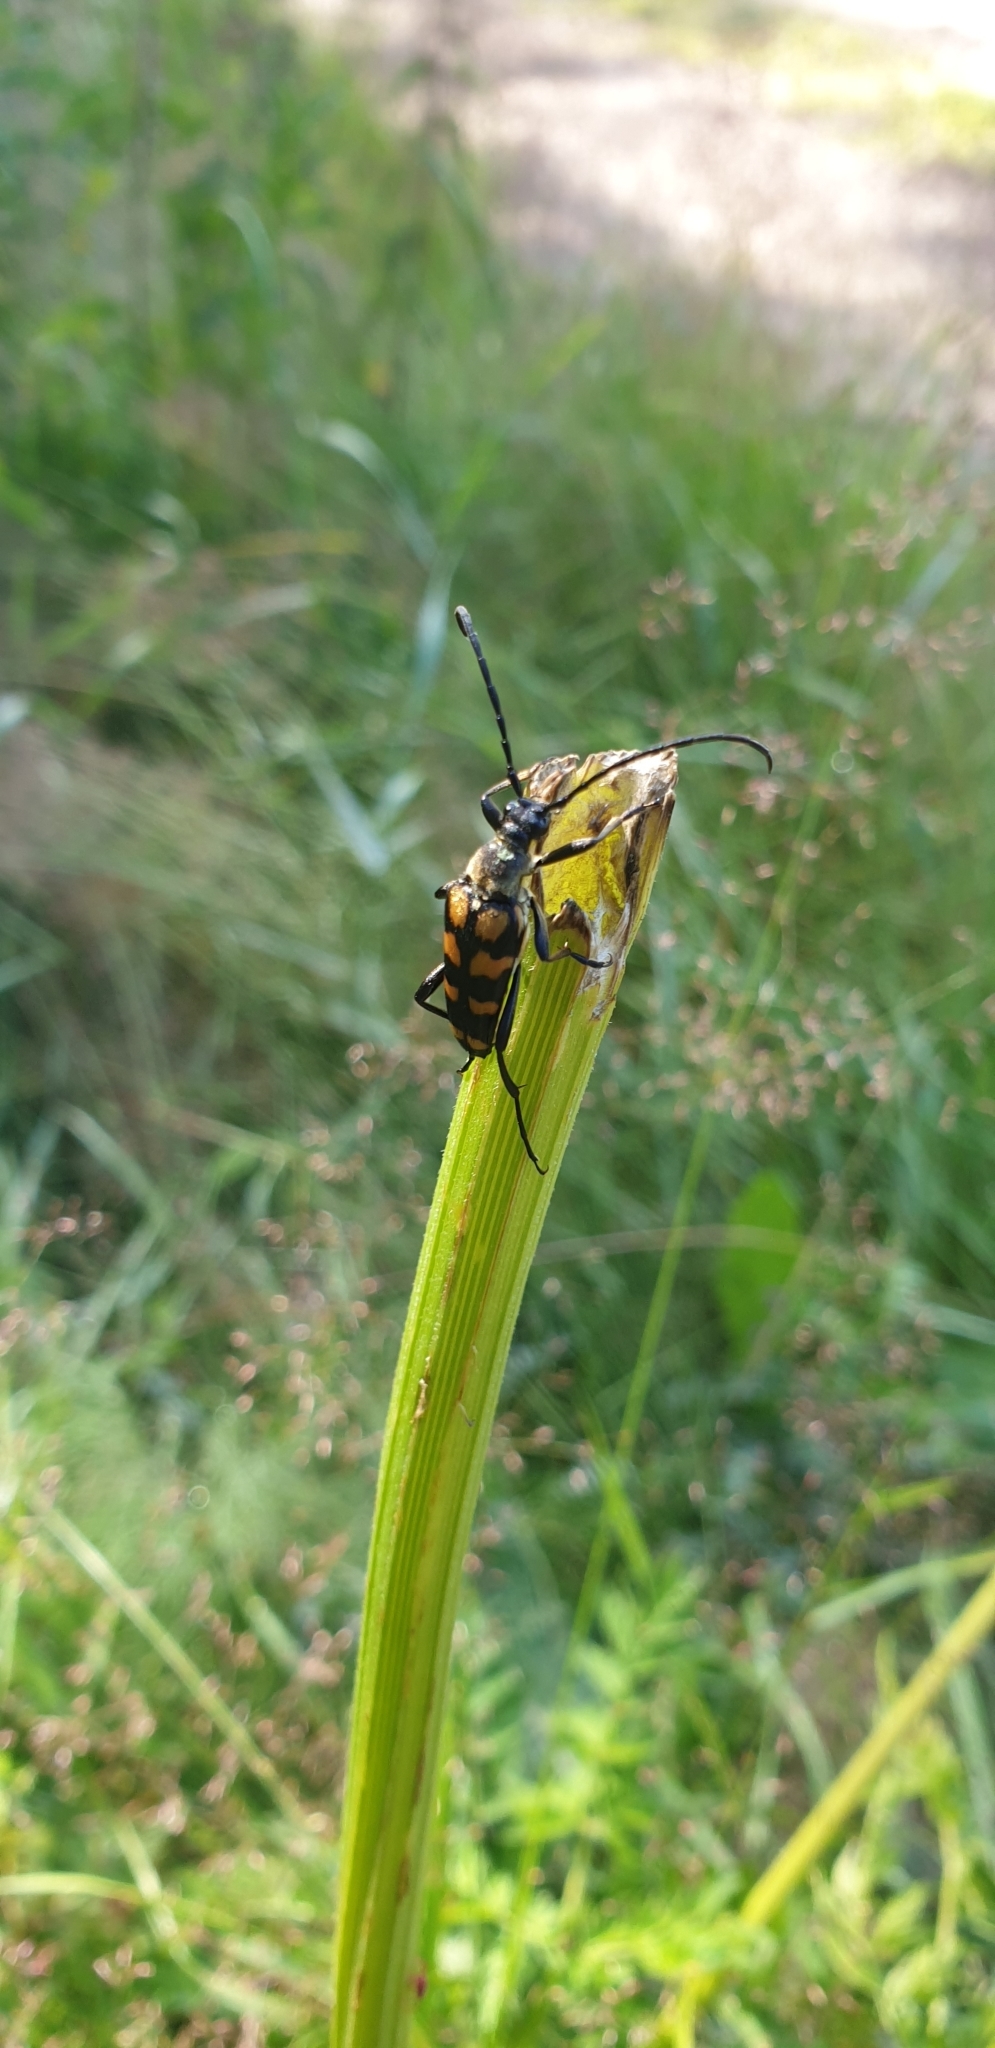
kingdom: Animalia
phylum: Arthropoda
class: Insecta
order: Coleoptera
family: Cerambycidae
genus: Leptura
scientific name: Leptura quadrifasciata
